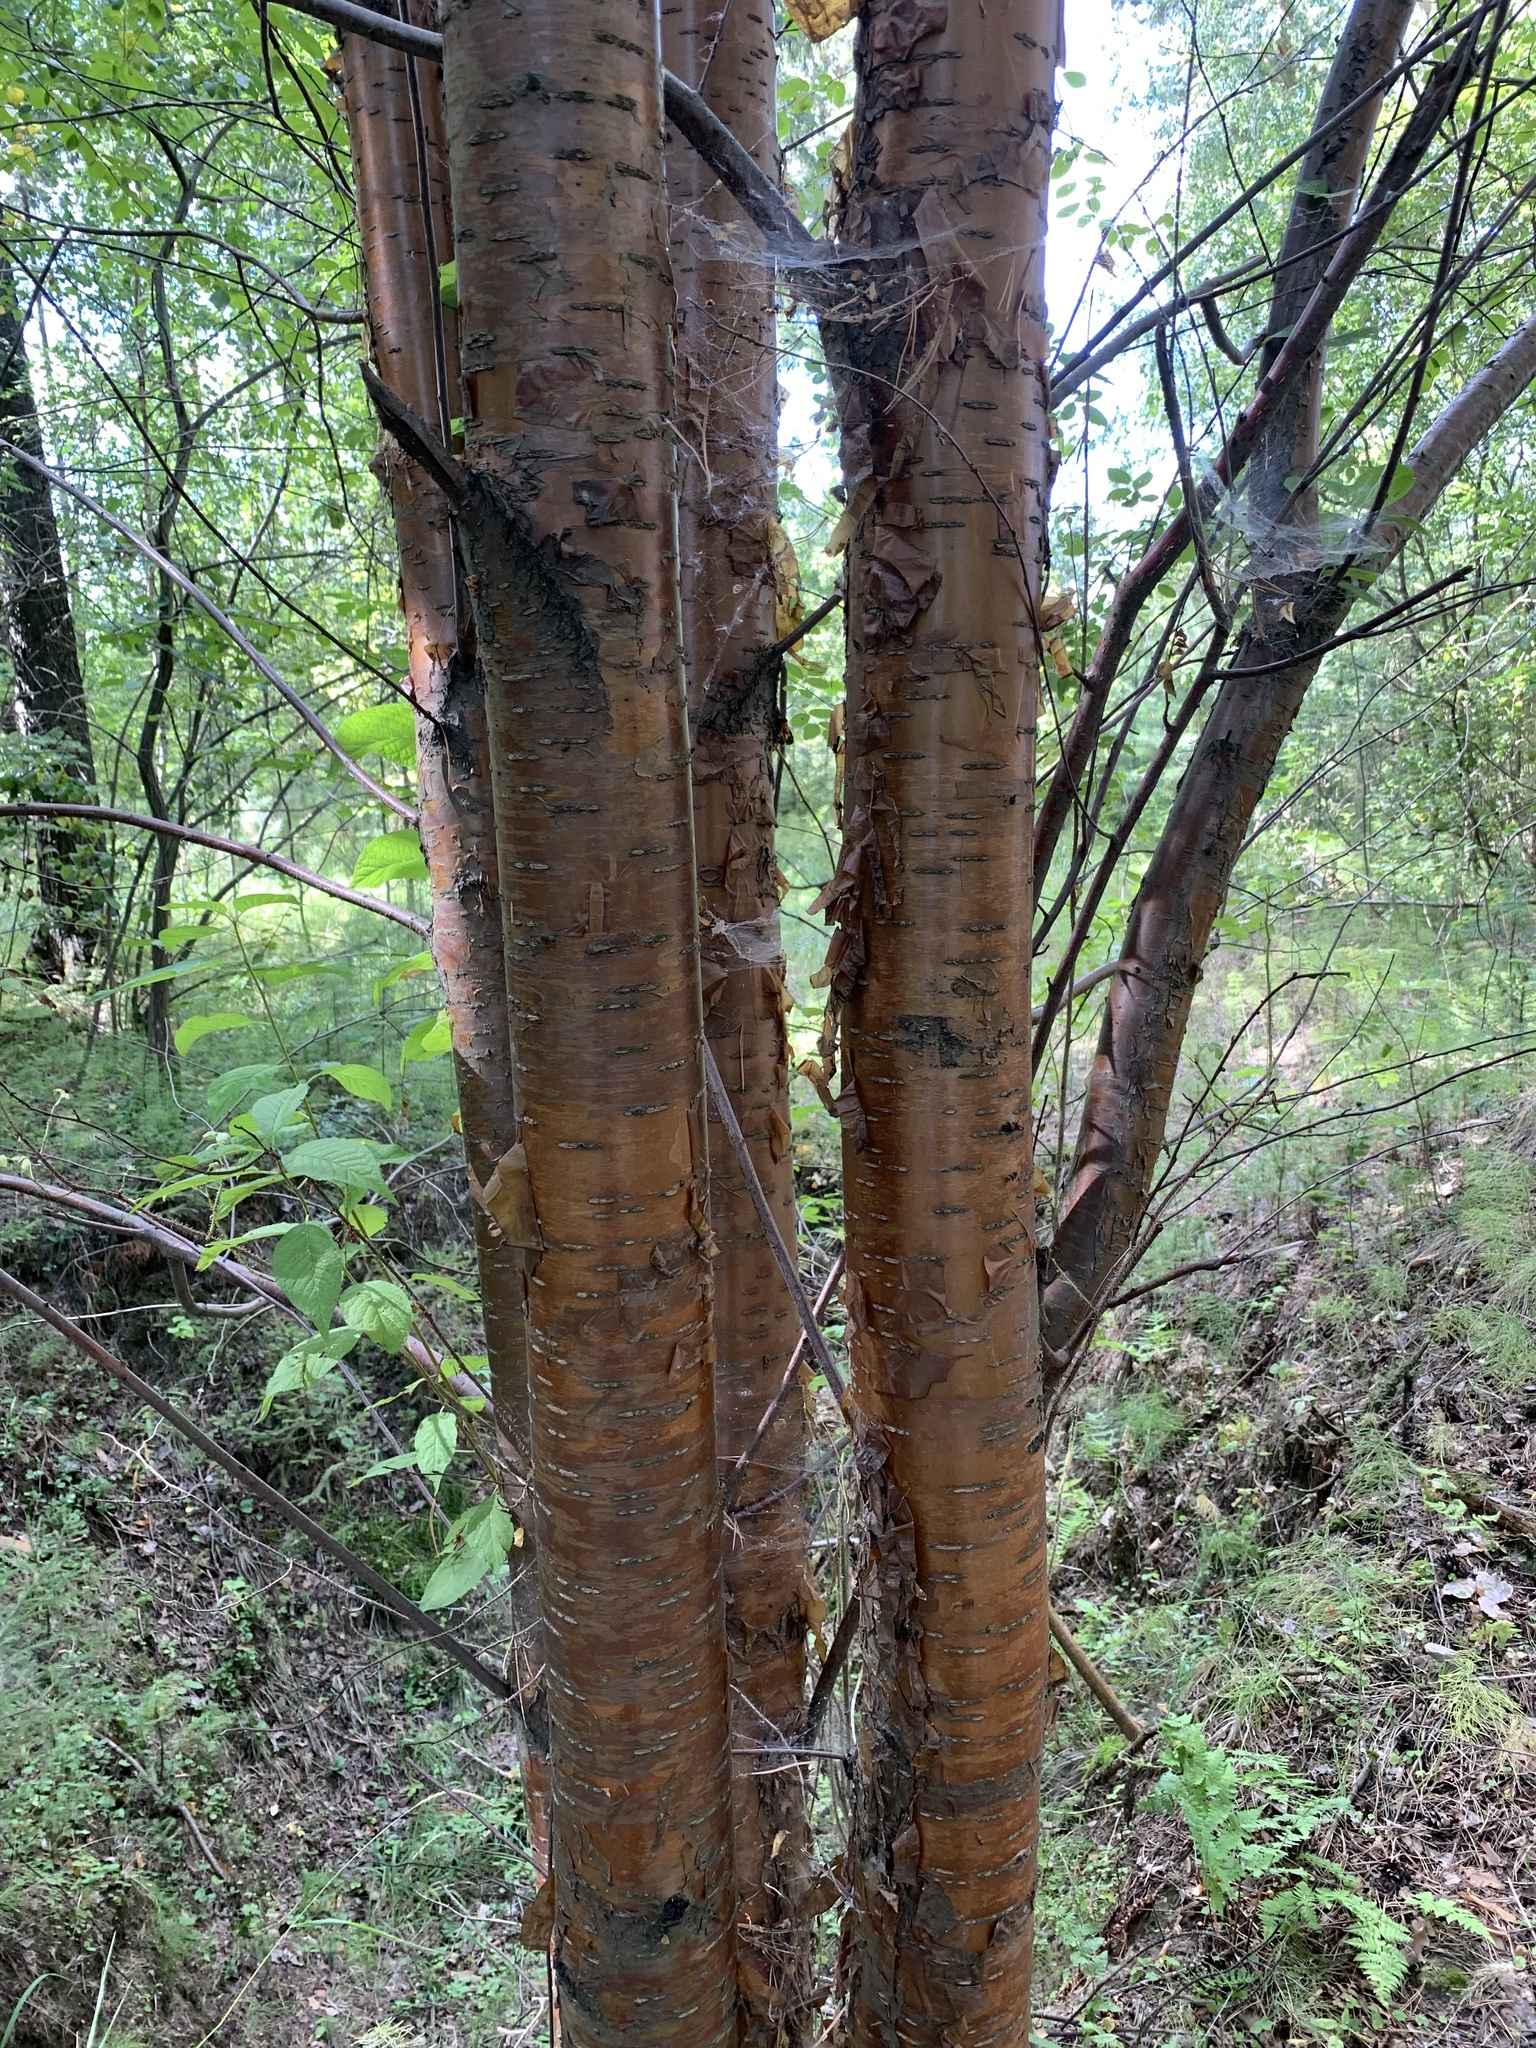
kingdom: Plantae
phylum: Tracheophyta
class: Magnoliopsida
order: Rosales
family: Rosaceae
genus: Prunus
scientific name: Prunus glandulifolia
